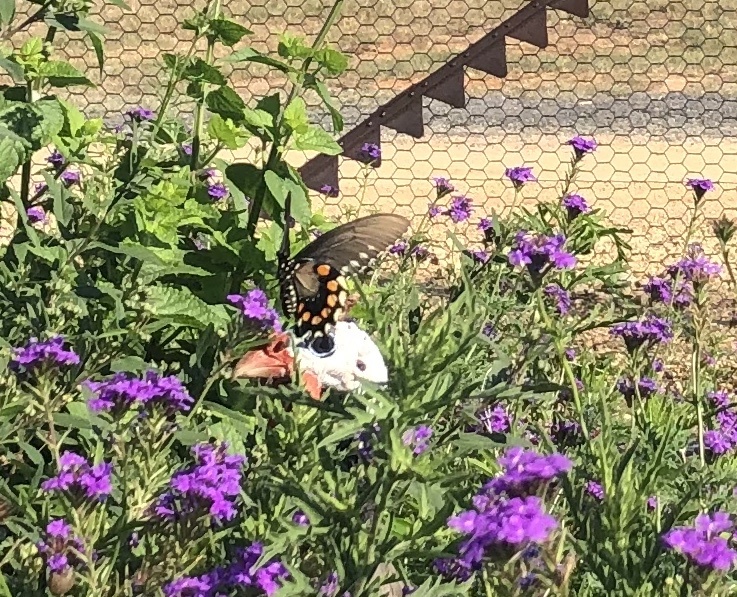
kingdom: Animalia
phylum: Arthropoda
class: Insecta
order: Lepidoptera
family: Papilionidae
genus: Battus
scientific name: Battus philenor
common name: Pipevine swallowtail
